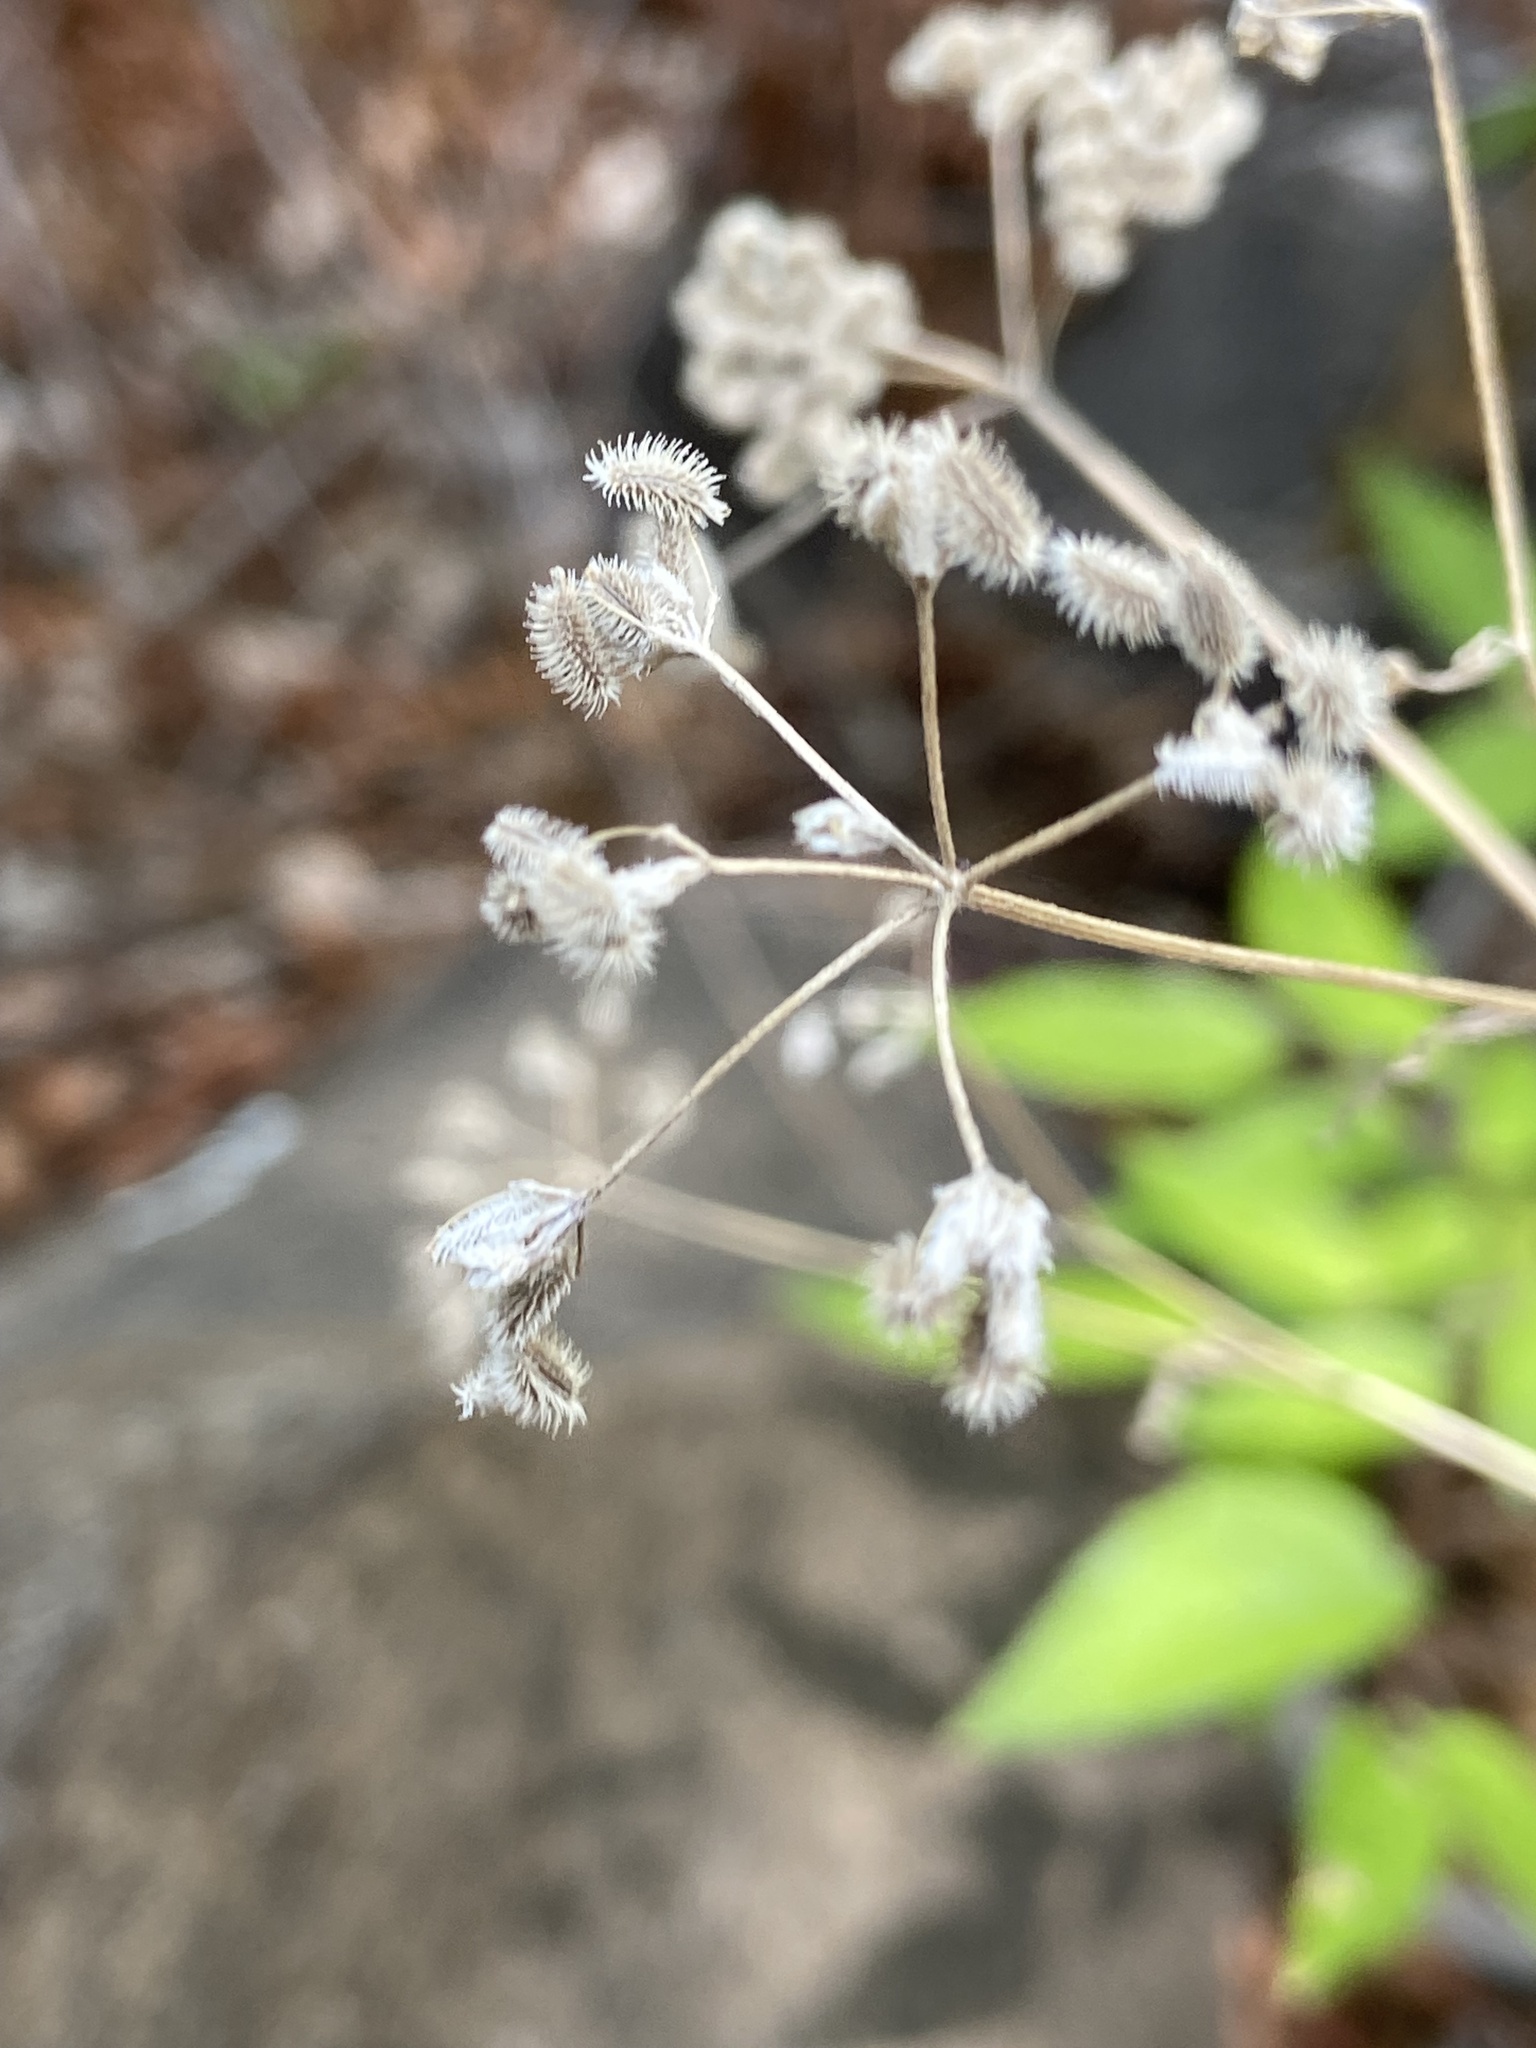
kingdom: Plantae
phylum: Tracheophyta
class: Magnoliopsida
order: Apiales
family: Apiaceae
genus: Torilis
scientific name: Torilis arvensis
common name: Spreading hedge-parsley
